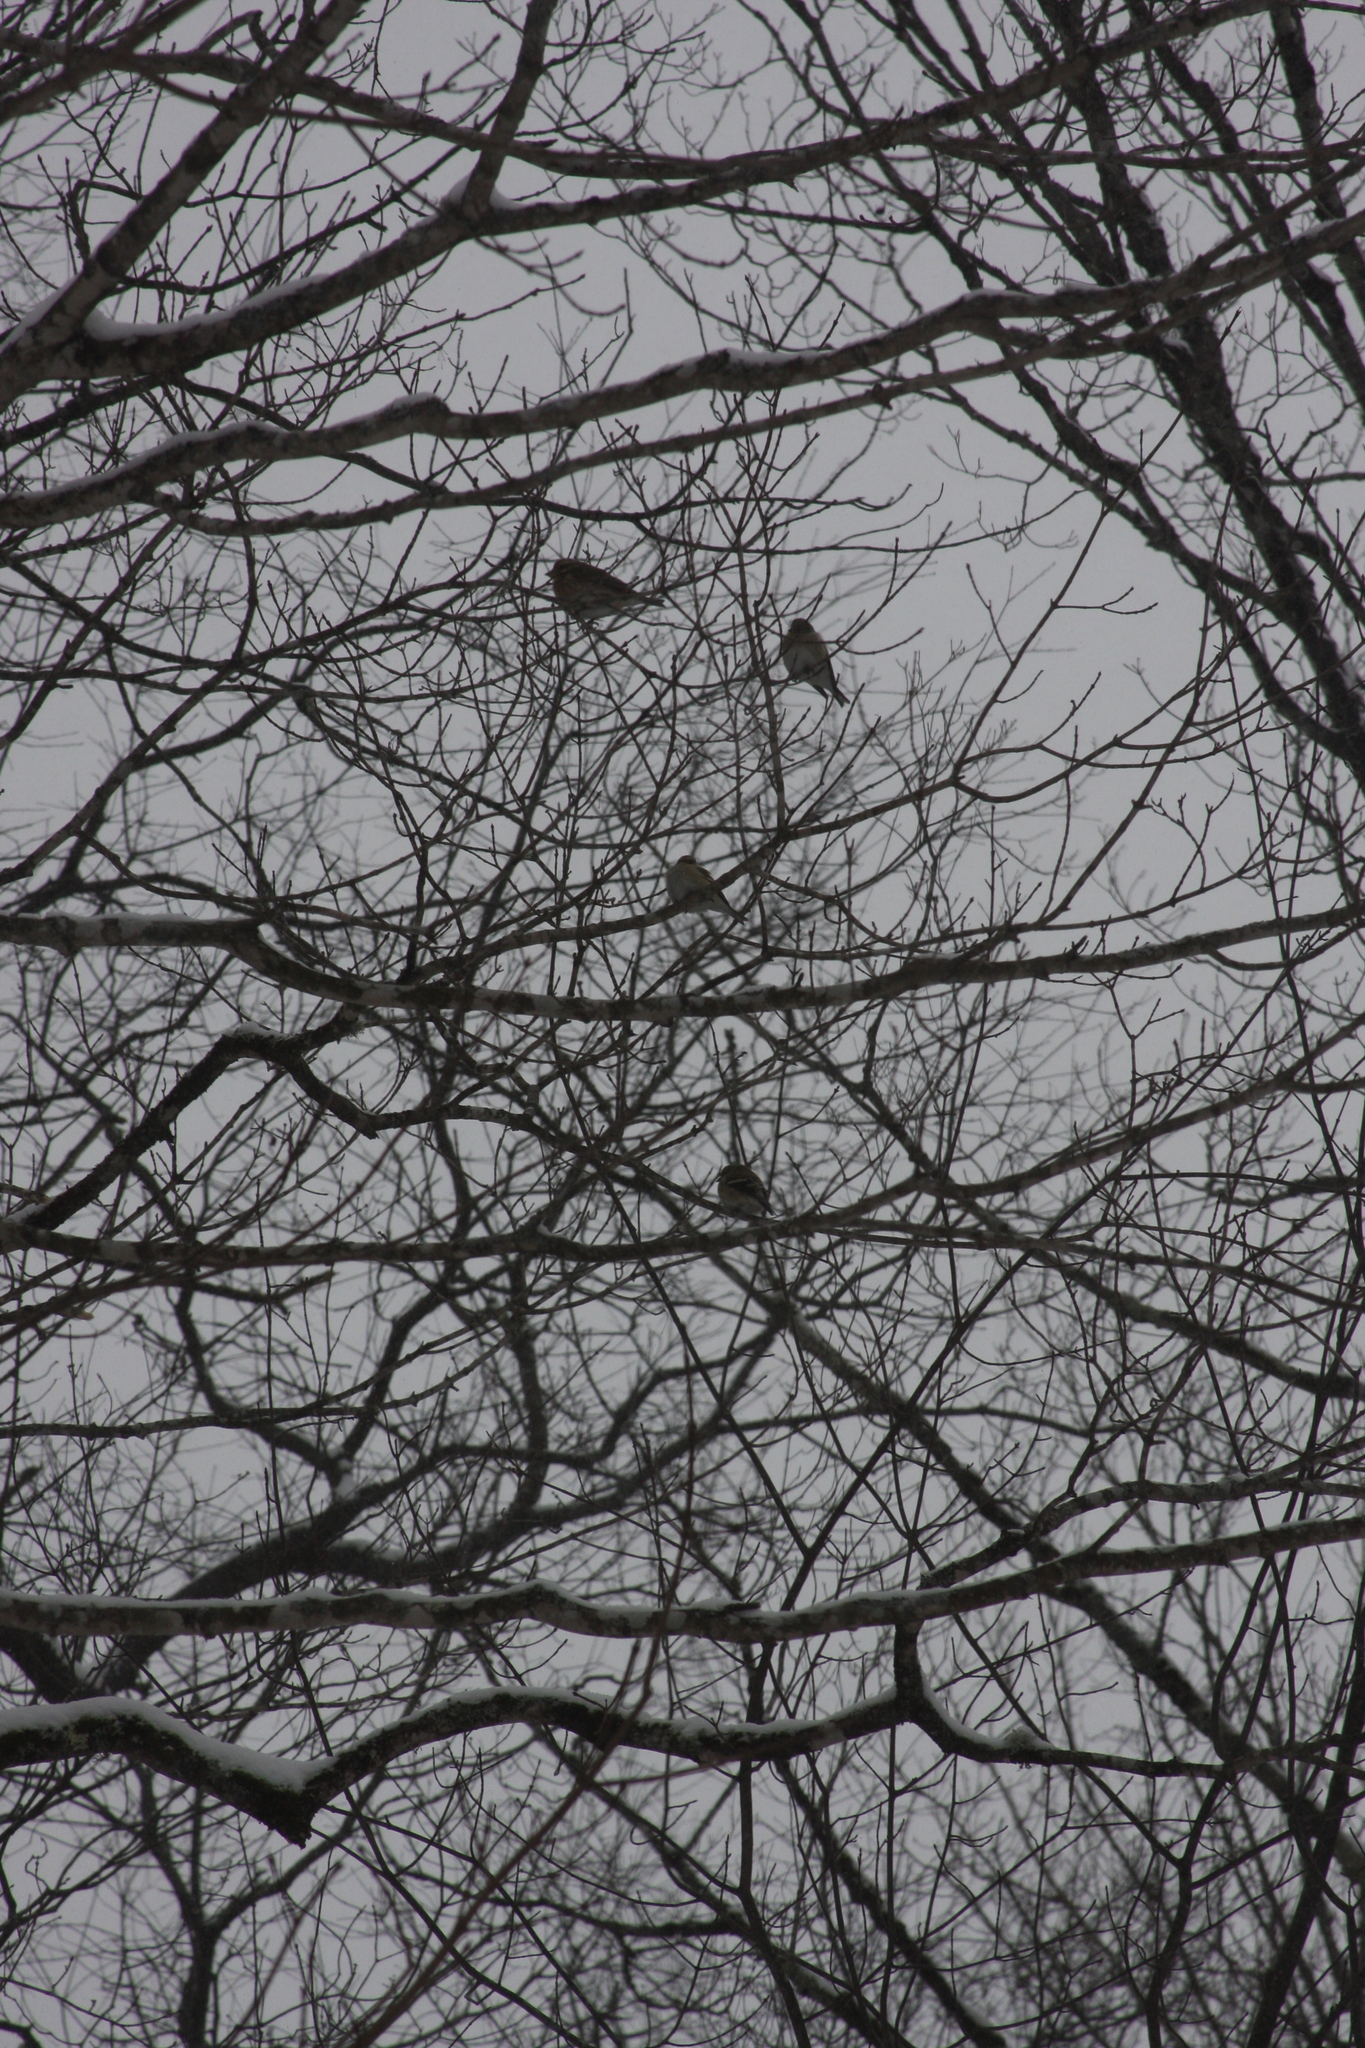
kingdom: Animalia
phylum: Chordata
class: Aves
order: Passeriformes
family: Fringillidae
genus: Haemorhous
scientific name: Haemorhous purpureus
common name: Purple finch
